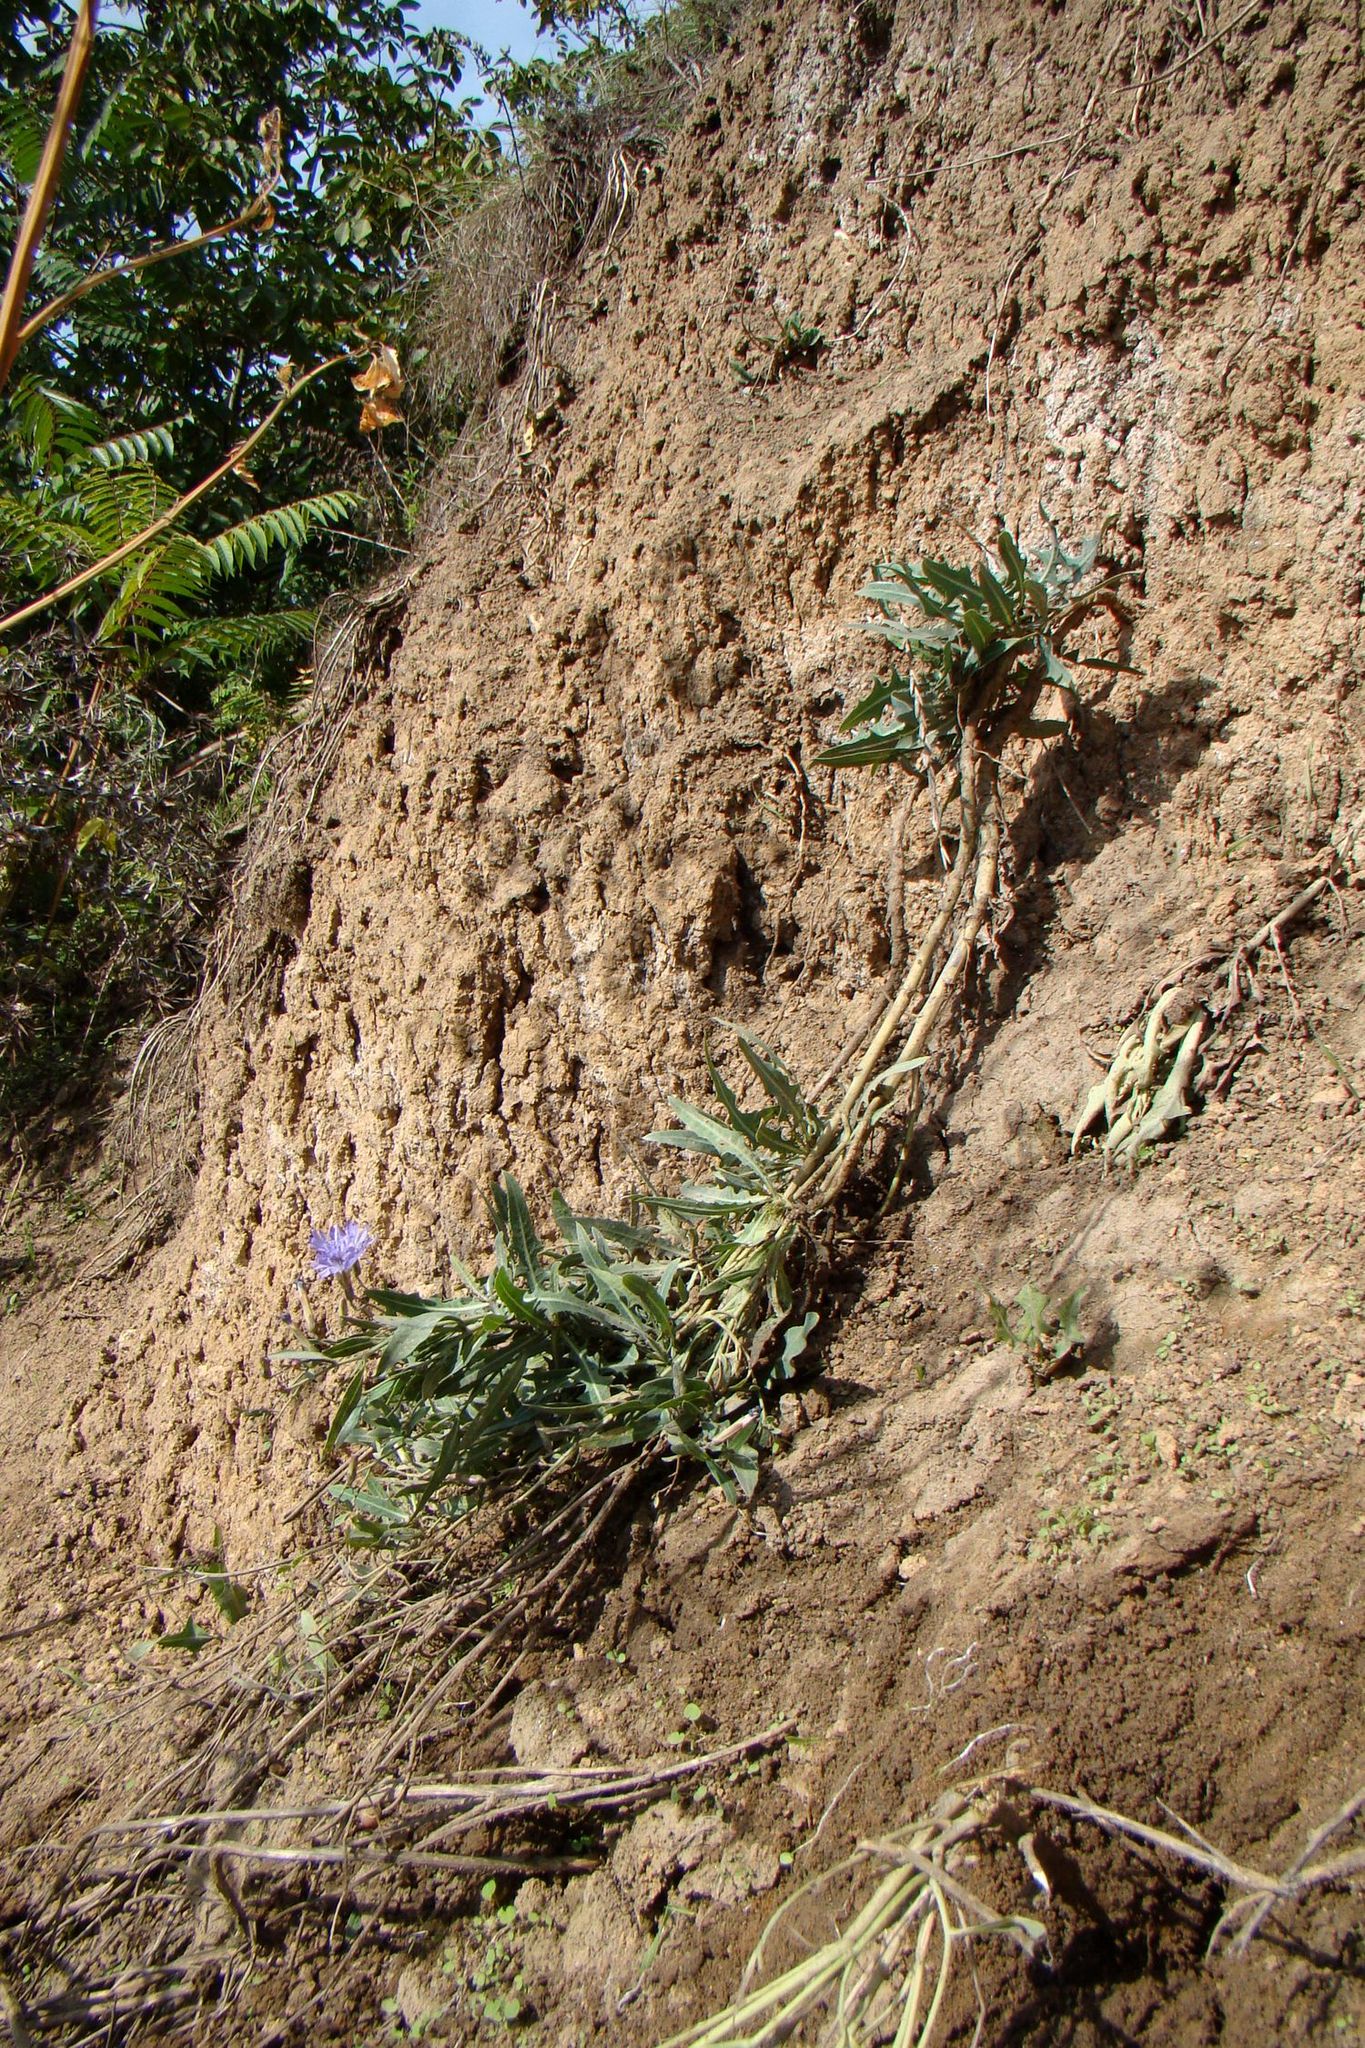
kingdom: Plantae
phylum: Tracheophyta
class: Magnoliopsida
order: Asterales
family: Asteraceae
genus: Lactuca
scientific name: Lactuca tatarica
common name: Blue lettuce
